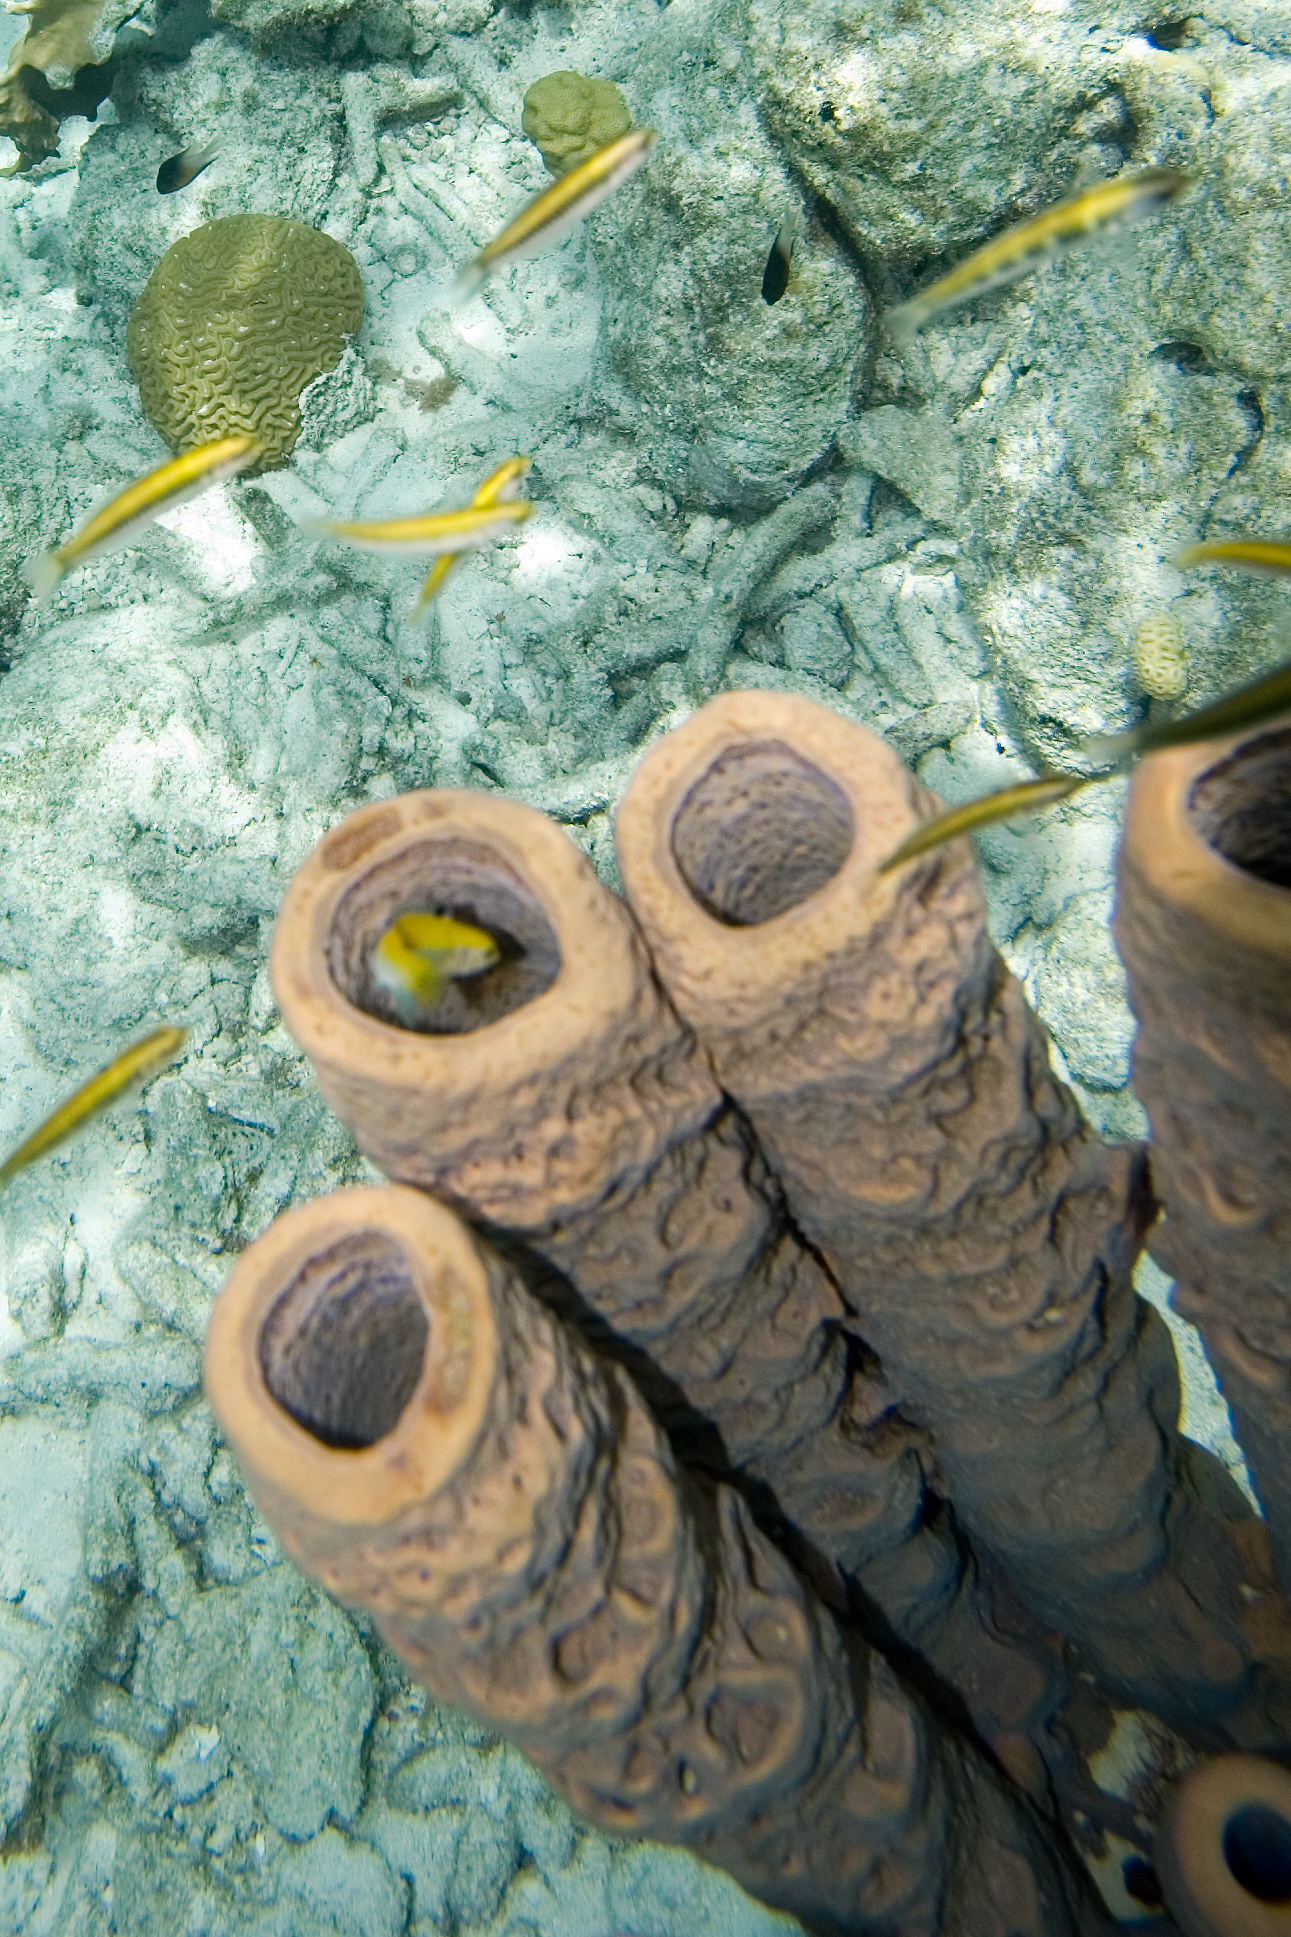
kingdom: Animalia
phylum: Porifera
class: Demospongiae
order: Verongiida
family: Aplysinidae
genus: Aplysina
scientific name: Aplysina archeri
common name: Stove-pipe sponge
